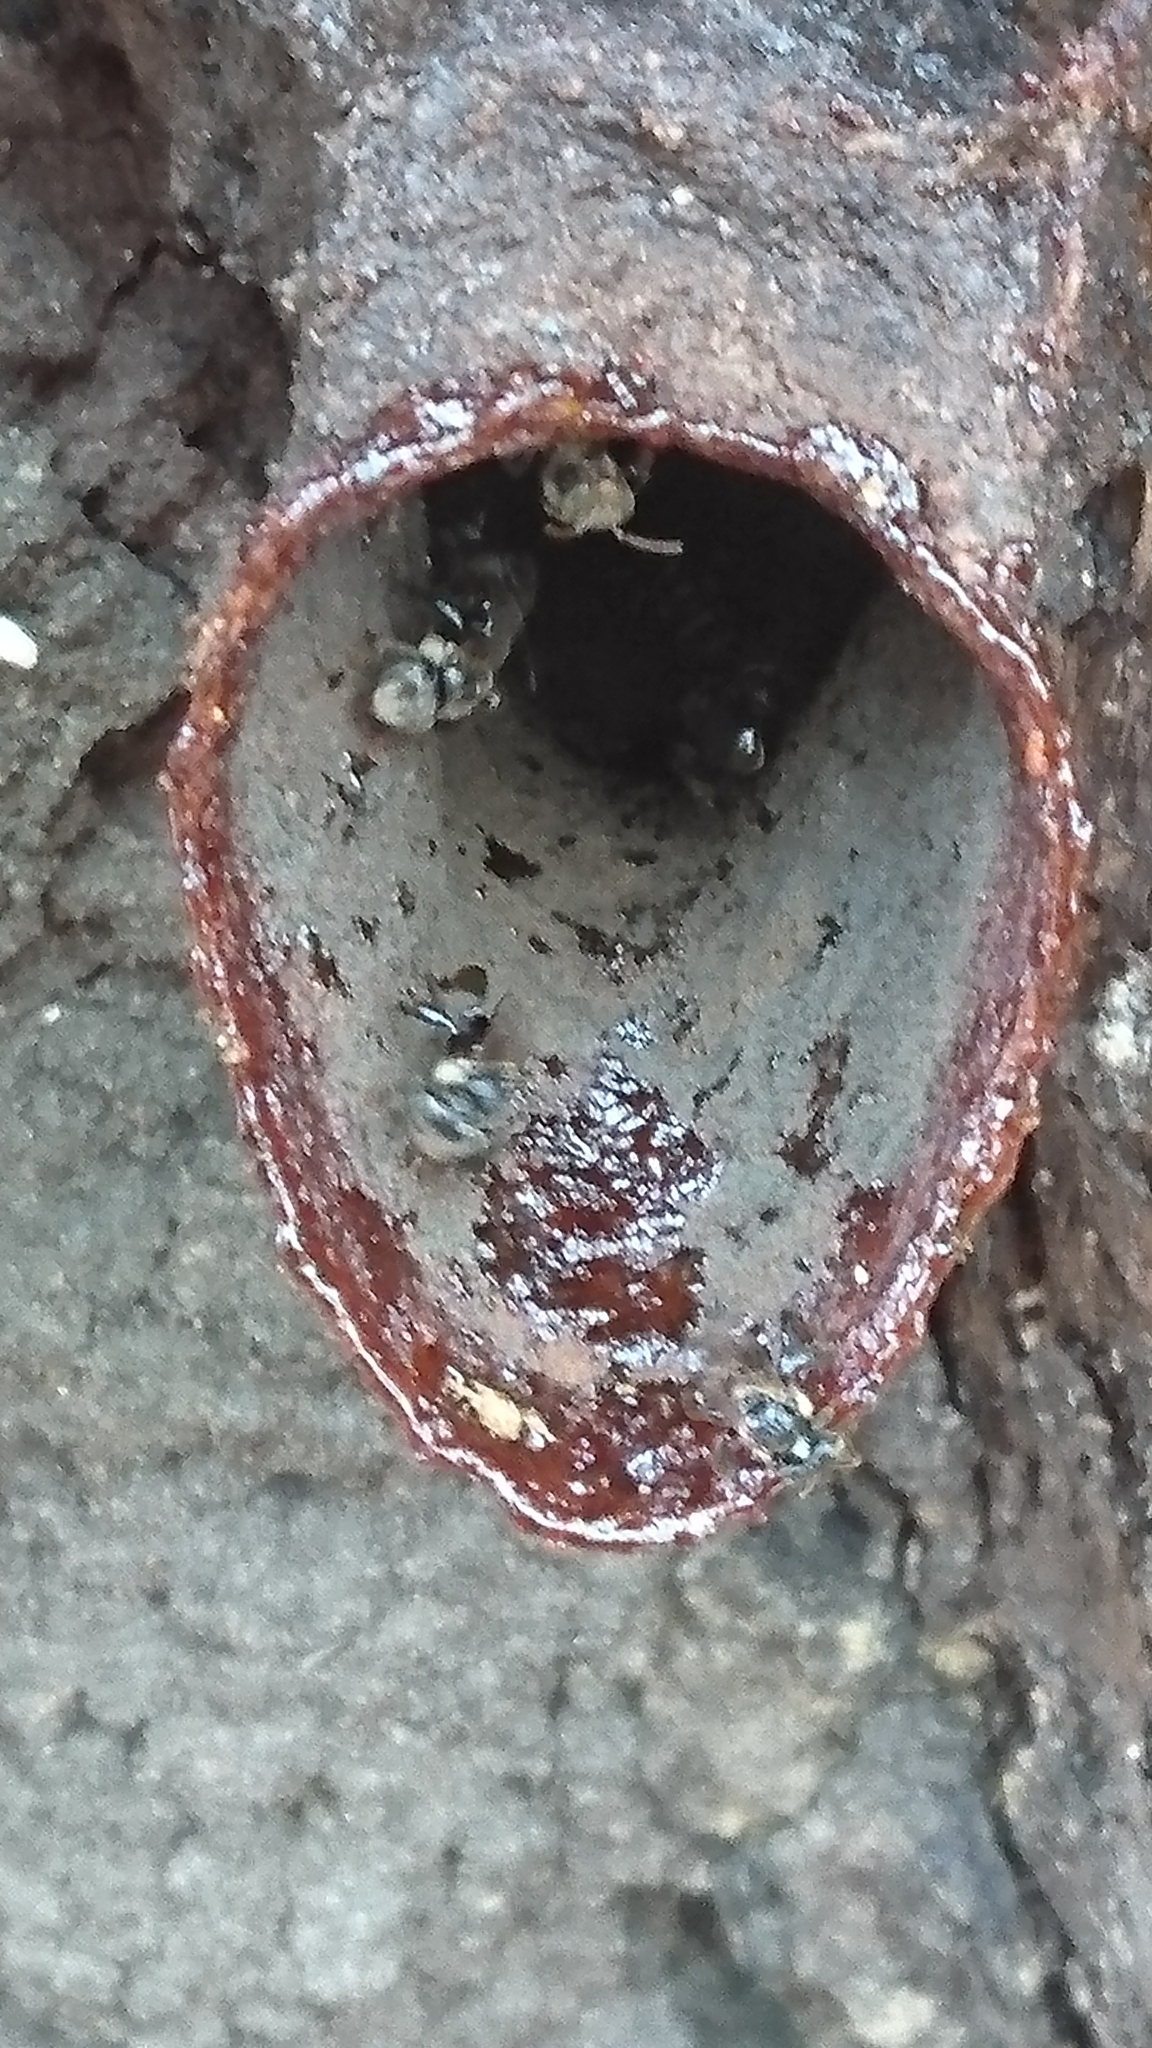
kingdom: Animalia
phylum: Arthropoda
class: Insecta
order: Hymenoptera
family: Apidae
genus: Tetragonula
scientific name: Tetragonula
